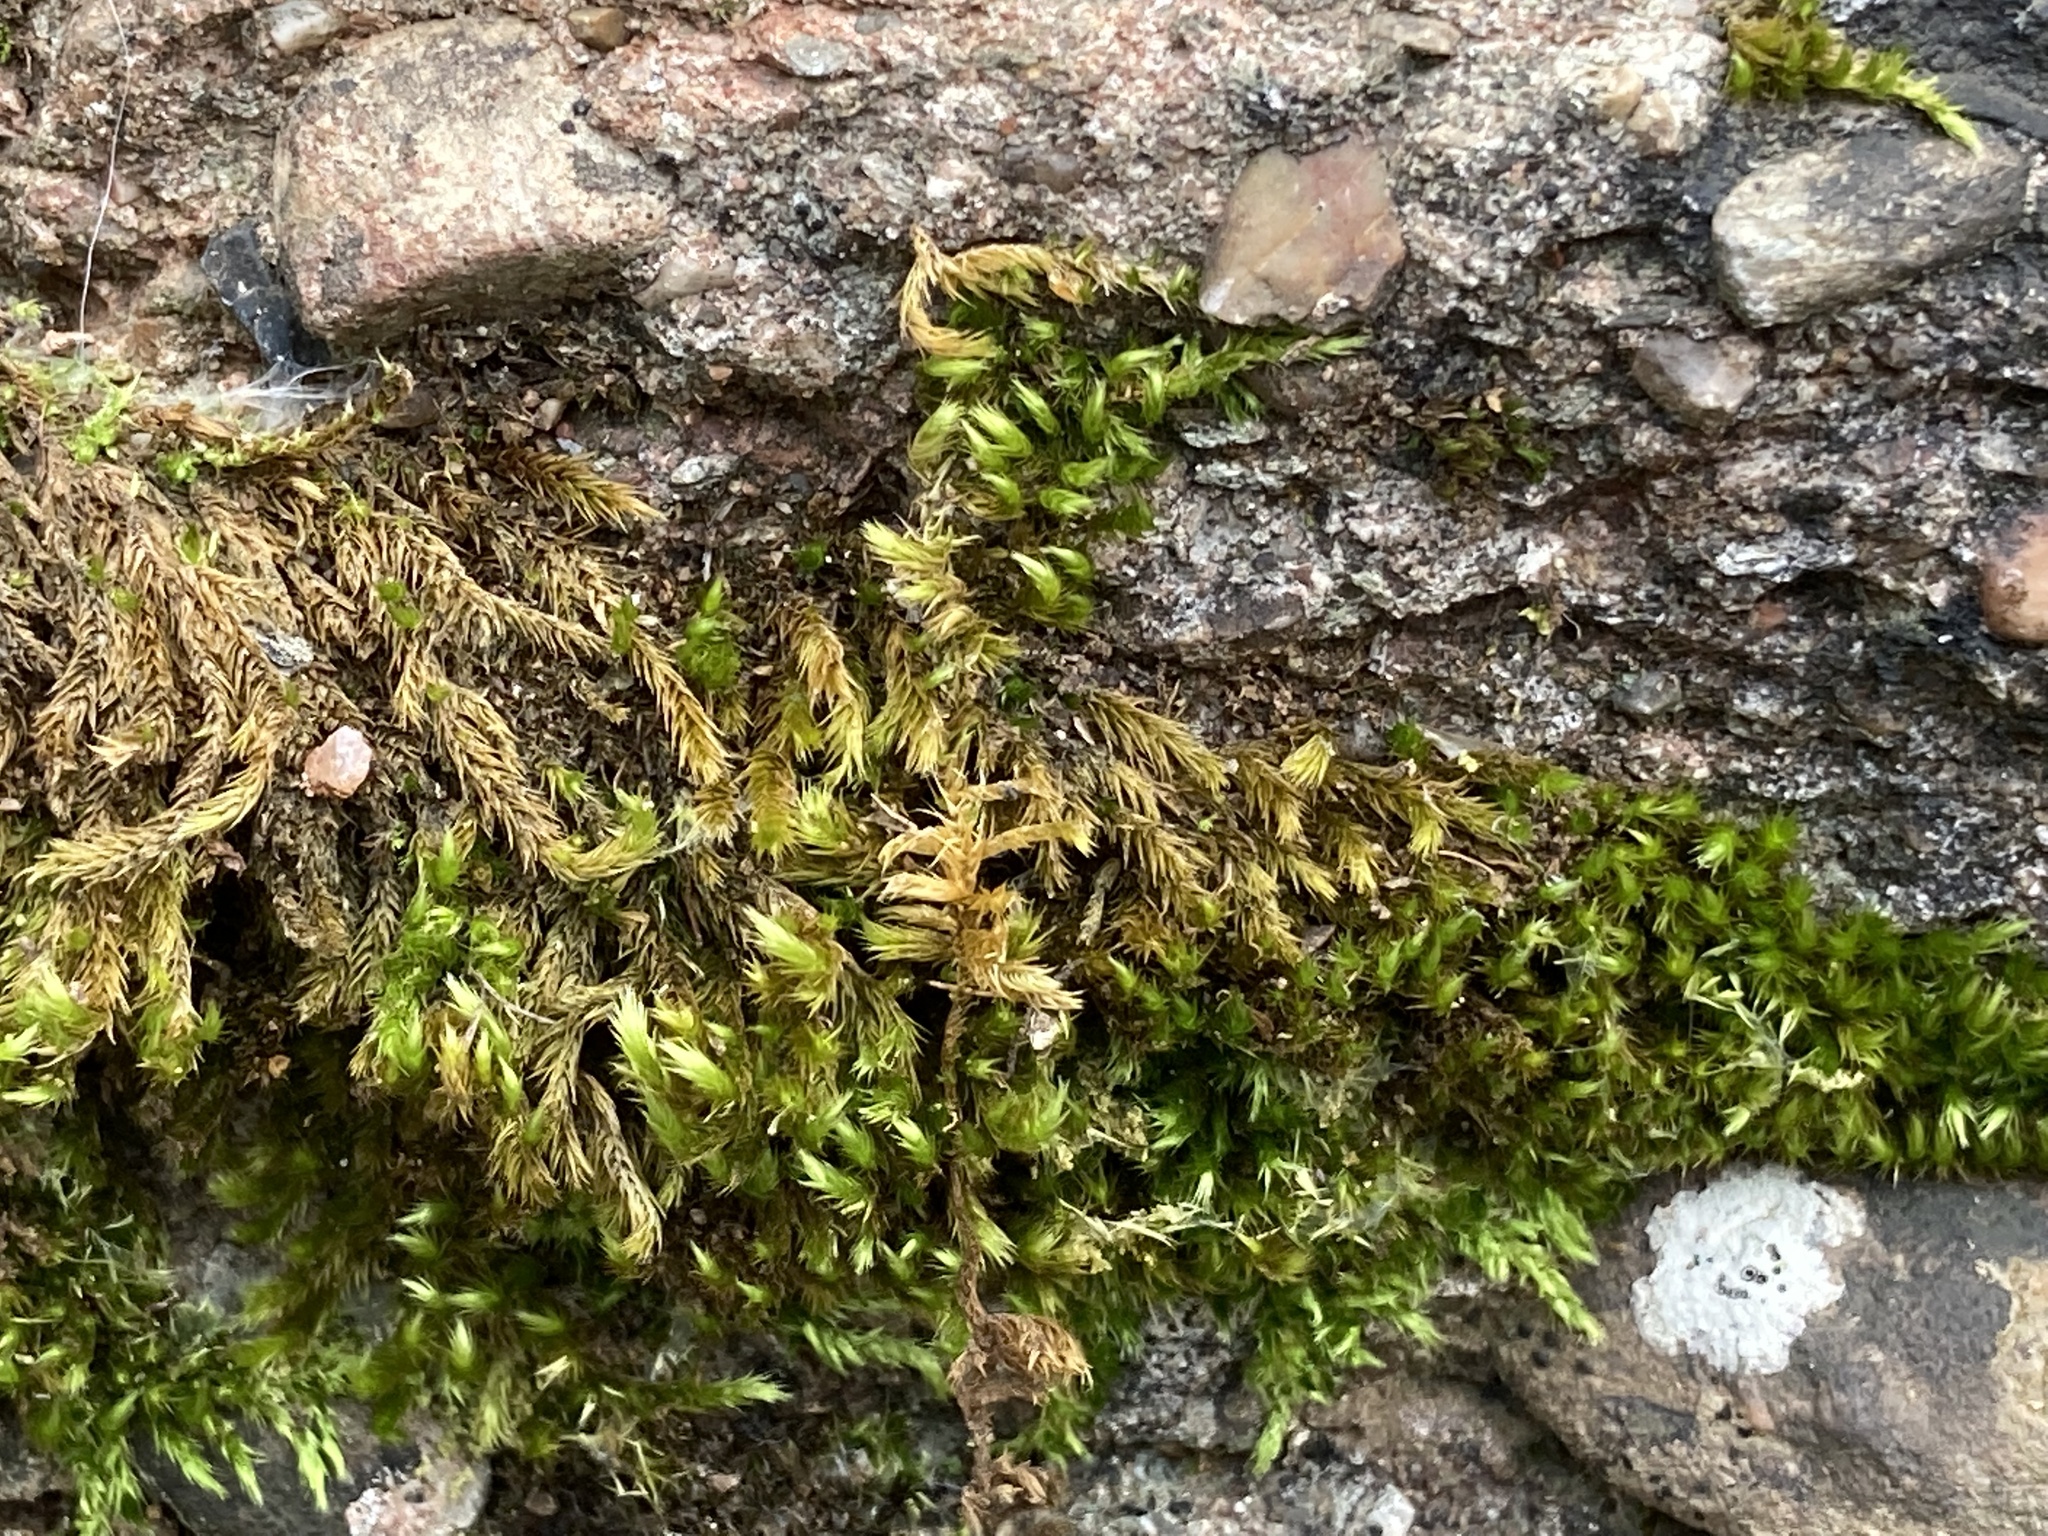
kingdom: Plantae
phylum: Bryophyta
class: Bryopsida
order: Hypnales
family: Brachytheciaceae
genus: Homalothecium
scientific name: Homalothecium sericeum
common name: Silky wall feather-moss
